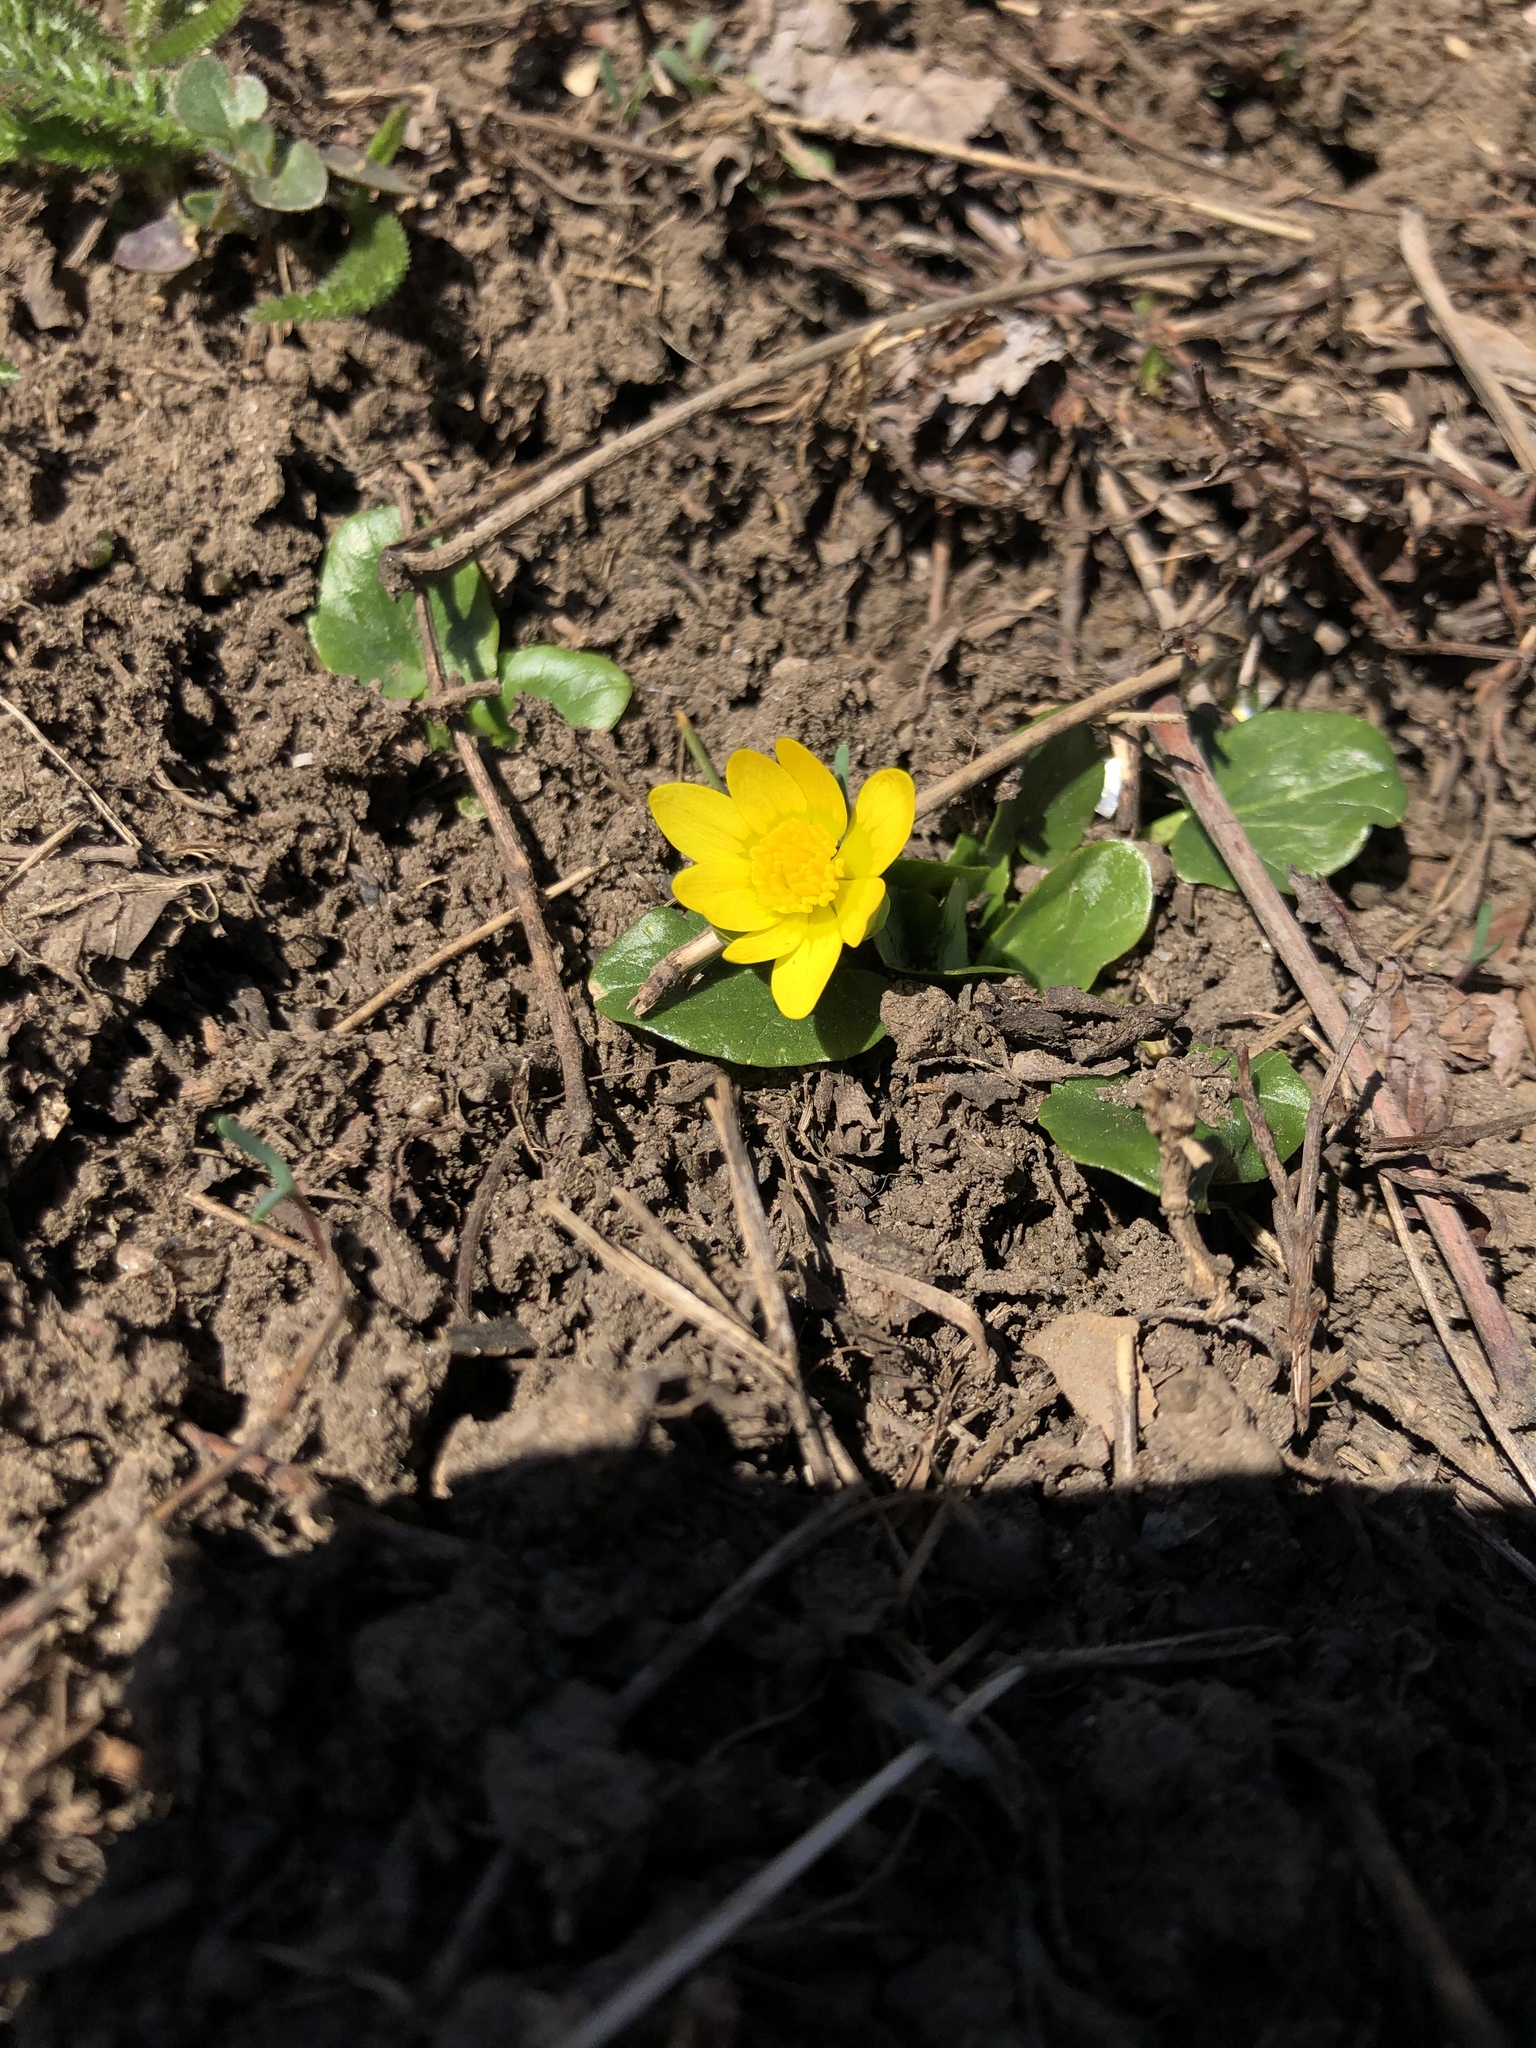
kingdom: Plantae
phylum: Tracheophyta
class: Magnoliopsida
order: Ranunculales
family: Ranunculaceae
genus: Ficaria
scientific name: Ficaria verna
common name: Lesser celandine
